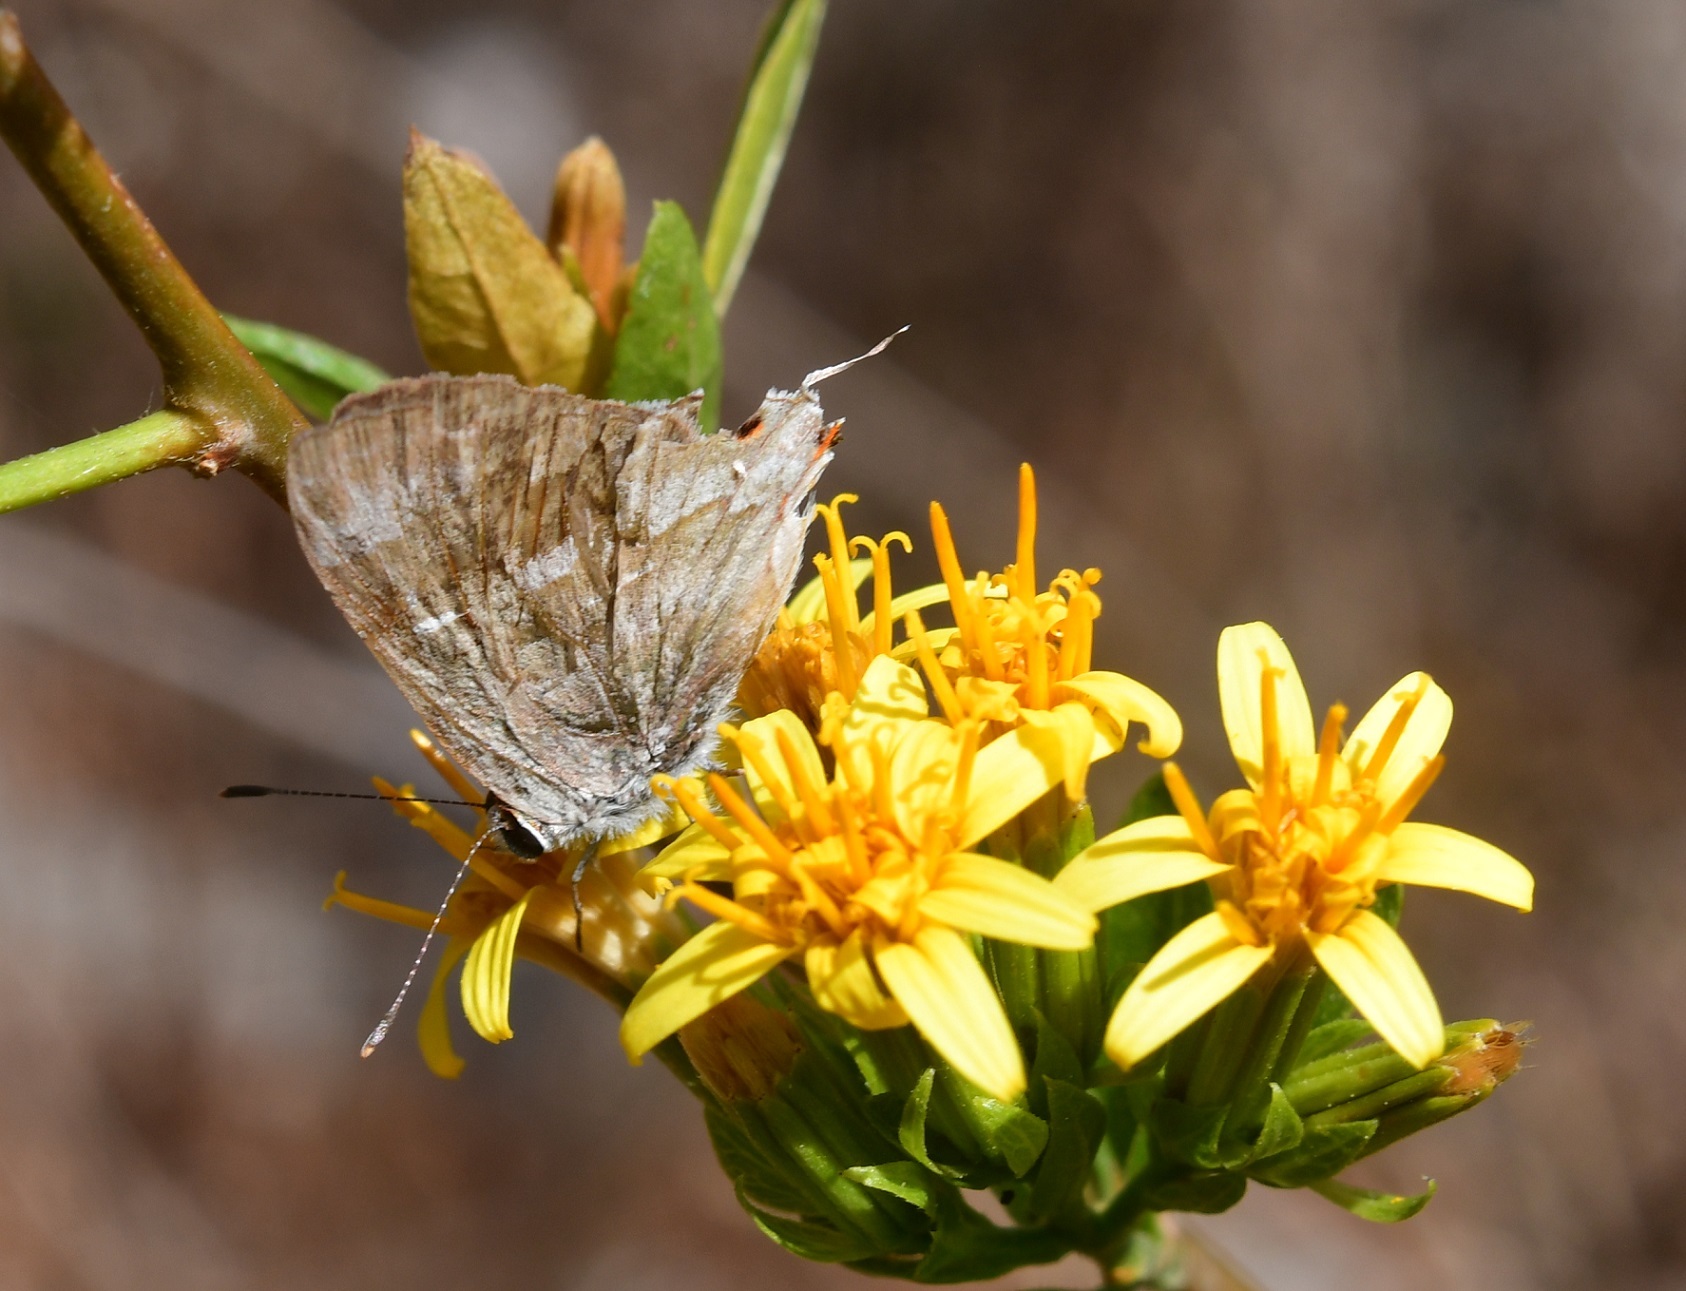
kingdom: Animalia
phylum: Arthropoda
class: Insecta
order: Lepidoptera
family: Lycaenidae
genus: Thecla
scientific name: Thecla yojoa
